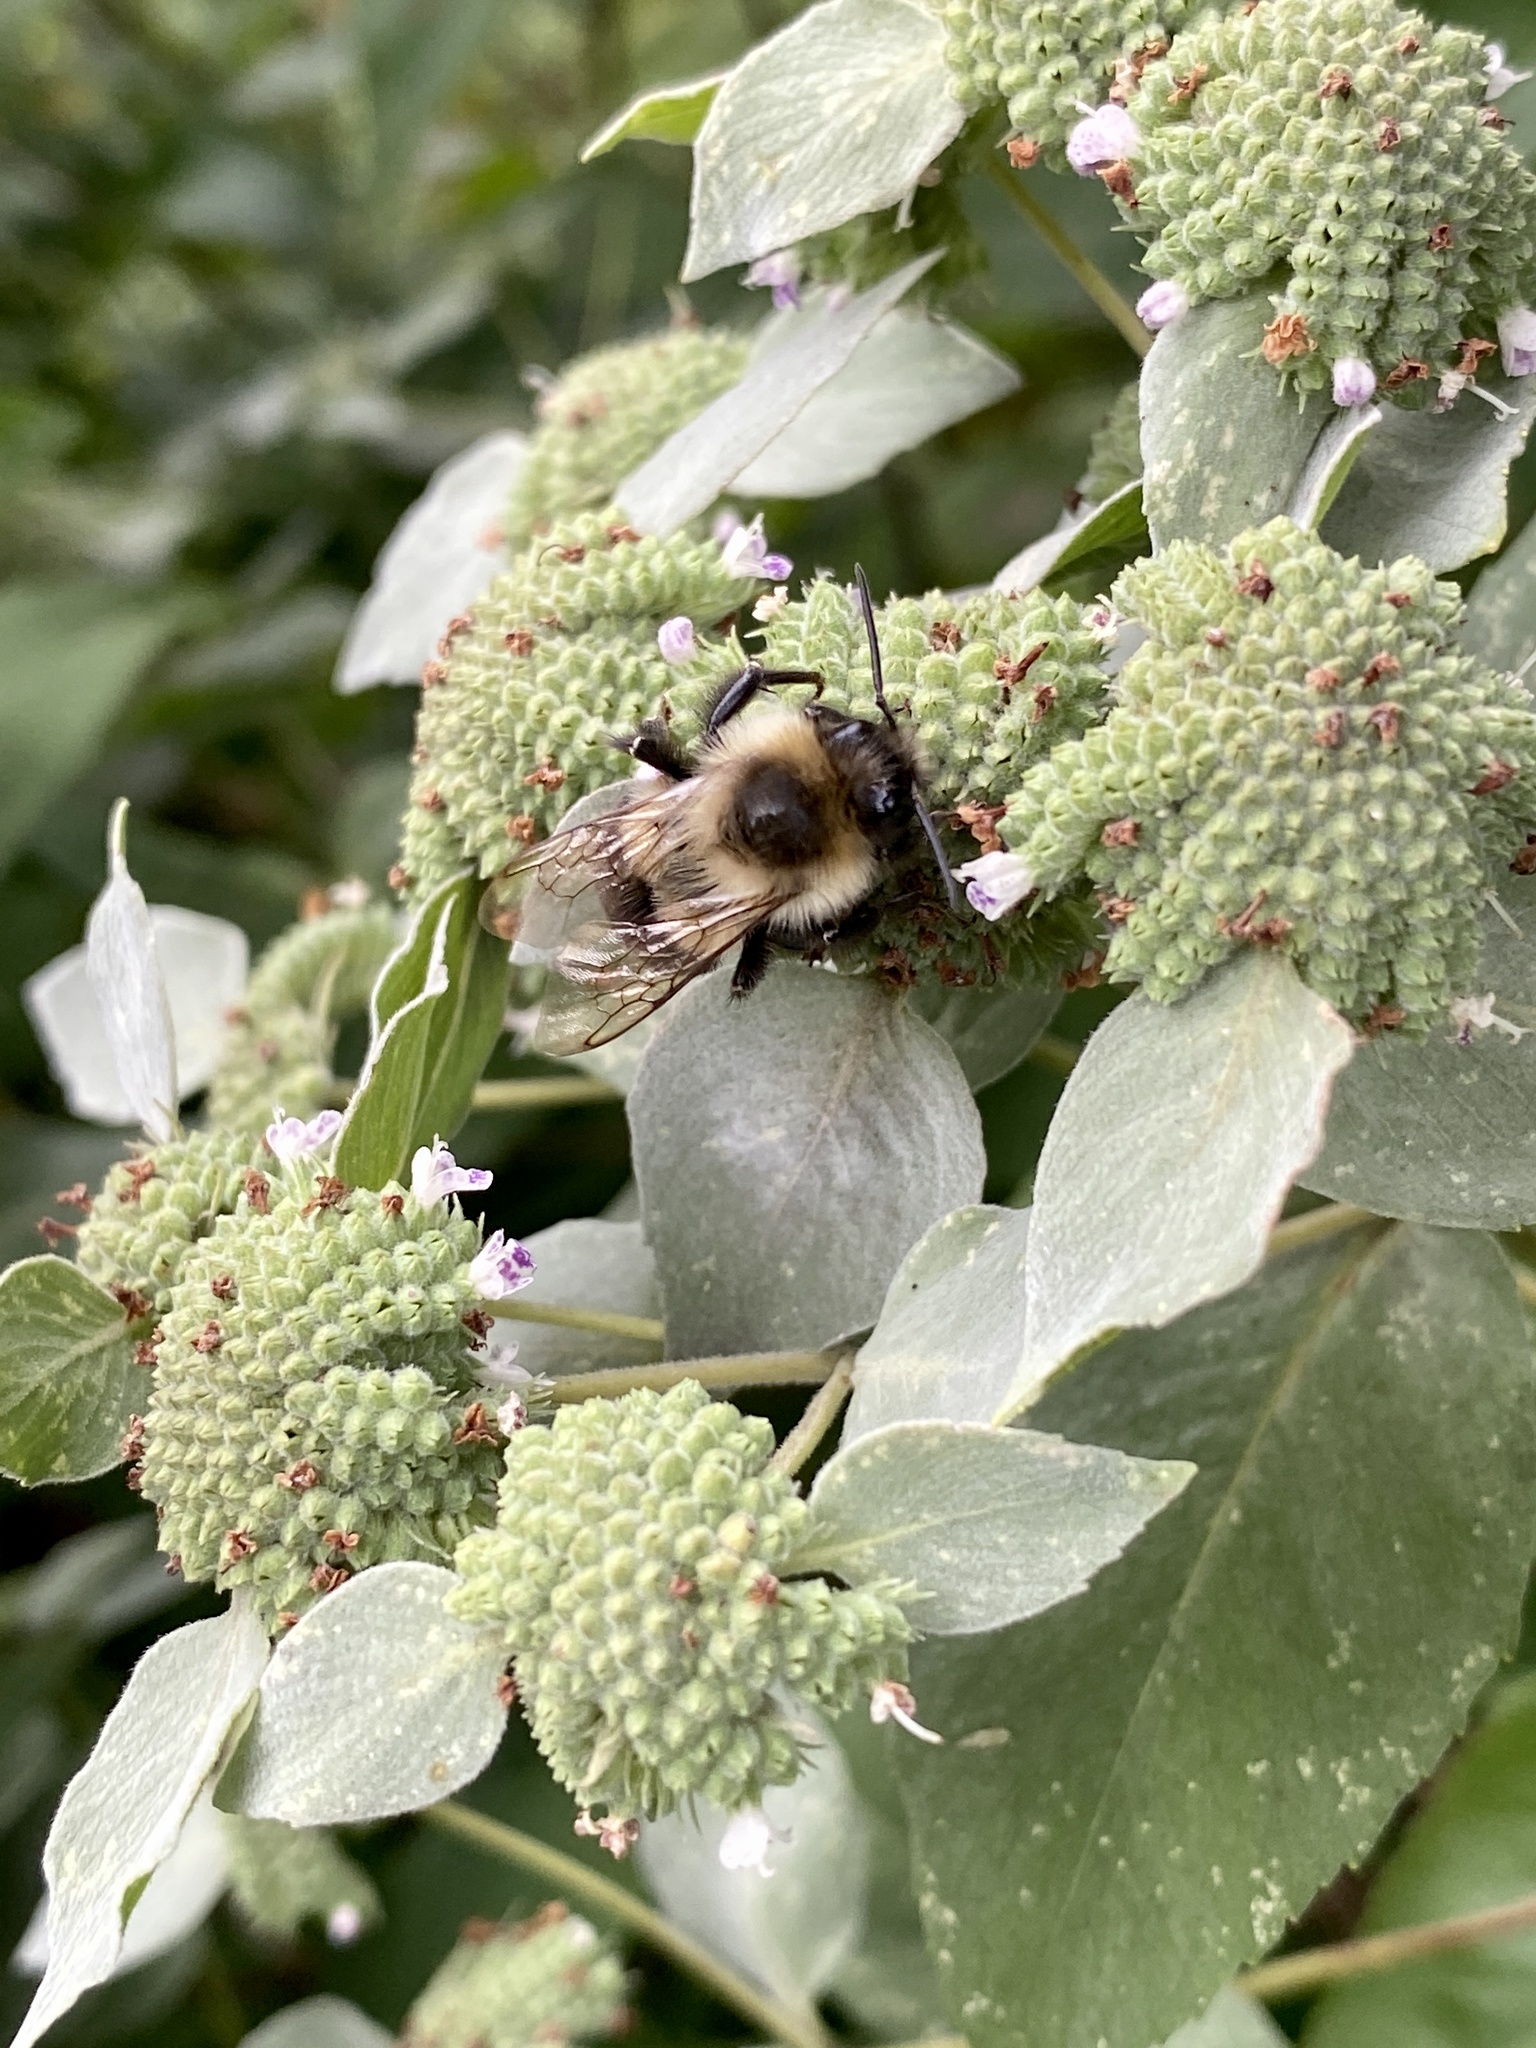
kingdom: Animalia
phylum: Arthropoda
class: Insecta
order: Hymenoptera
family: Apidae
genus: Bombus
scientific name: Bombus impatiens
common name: Common eastern bumble bee
